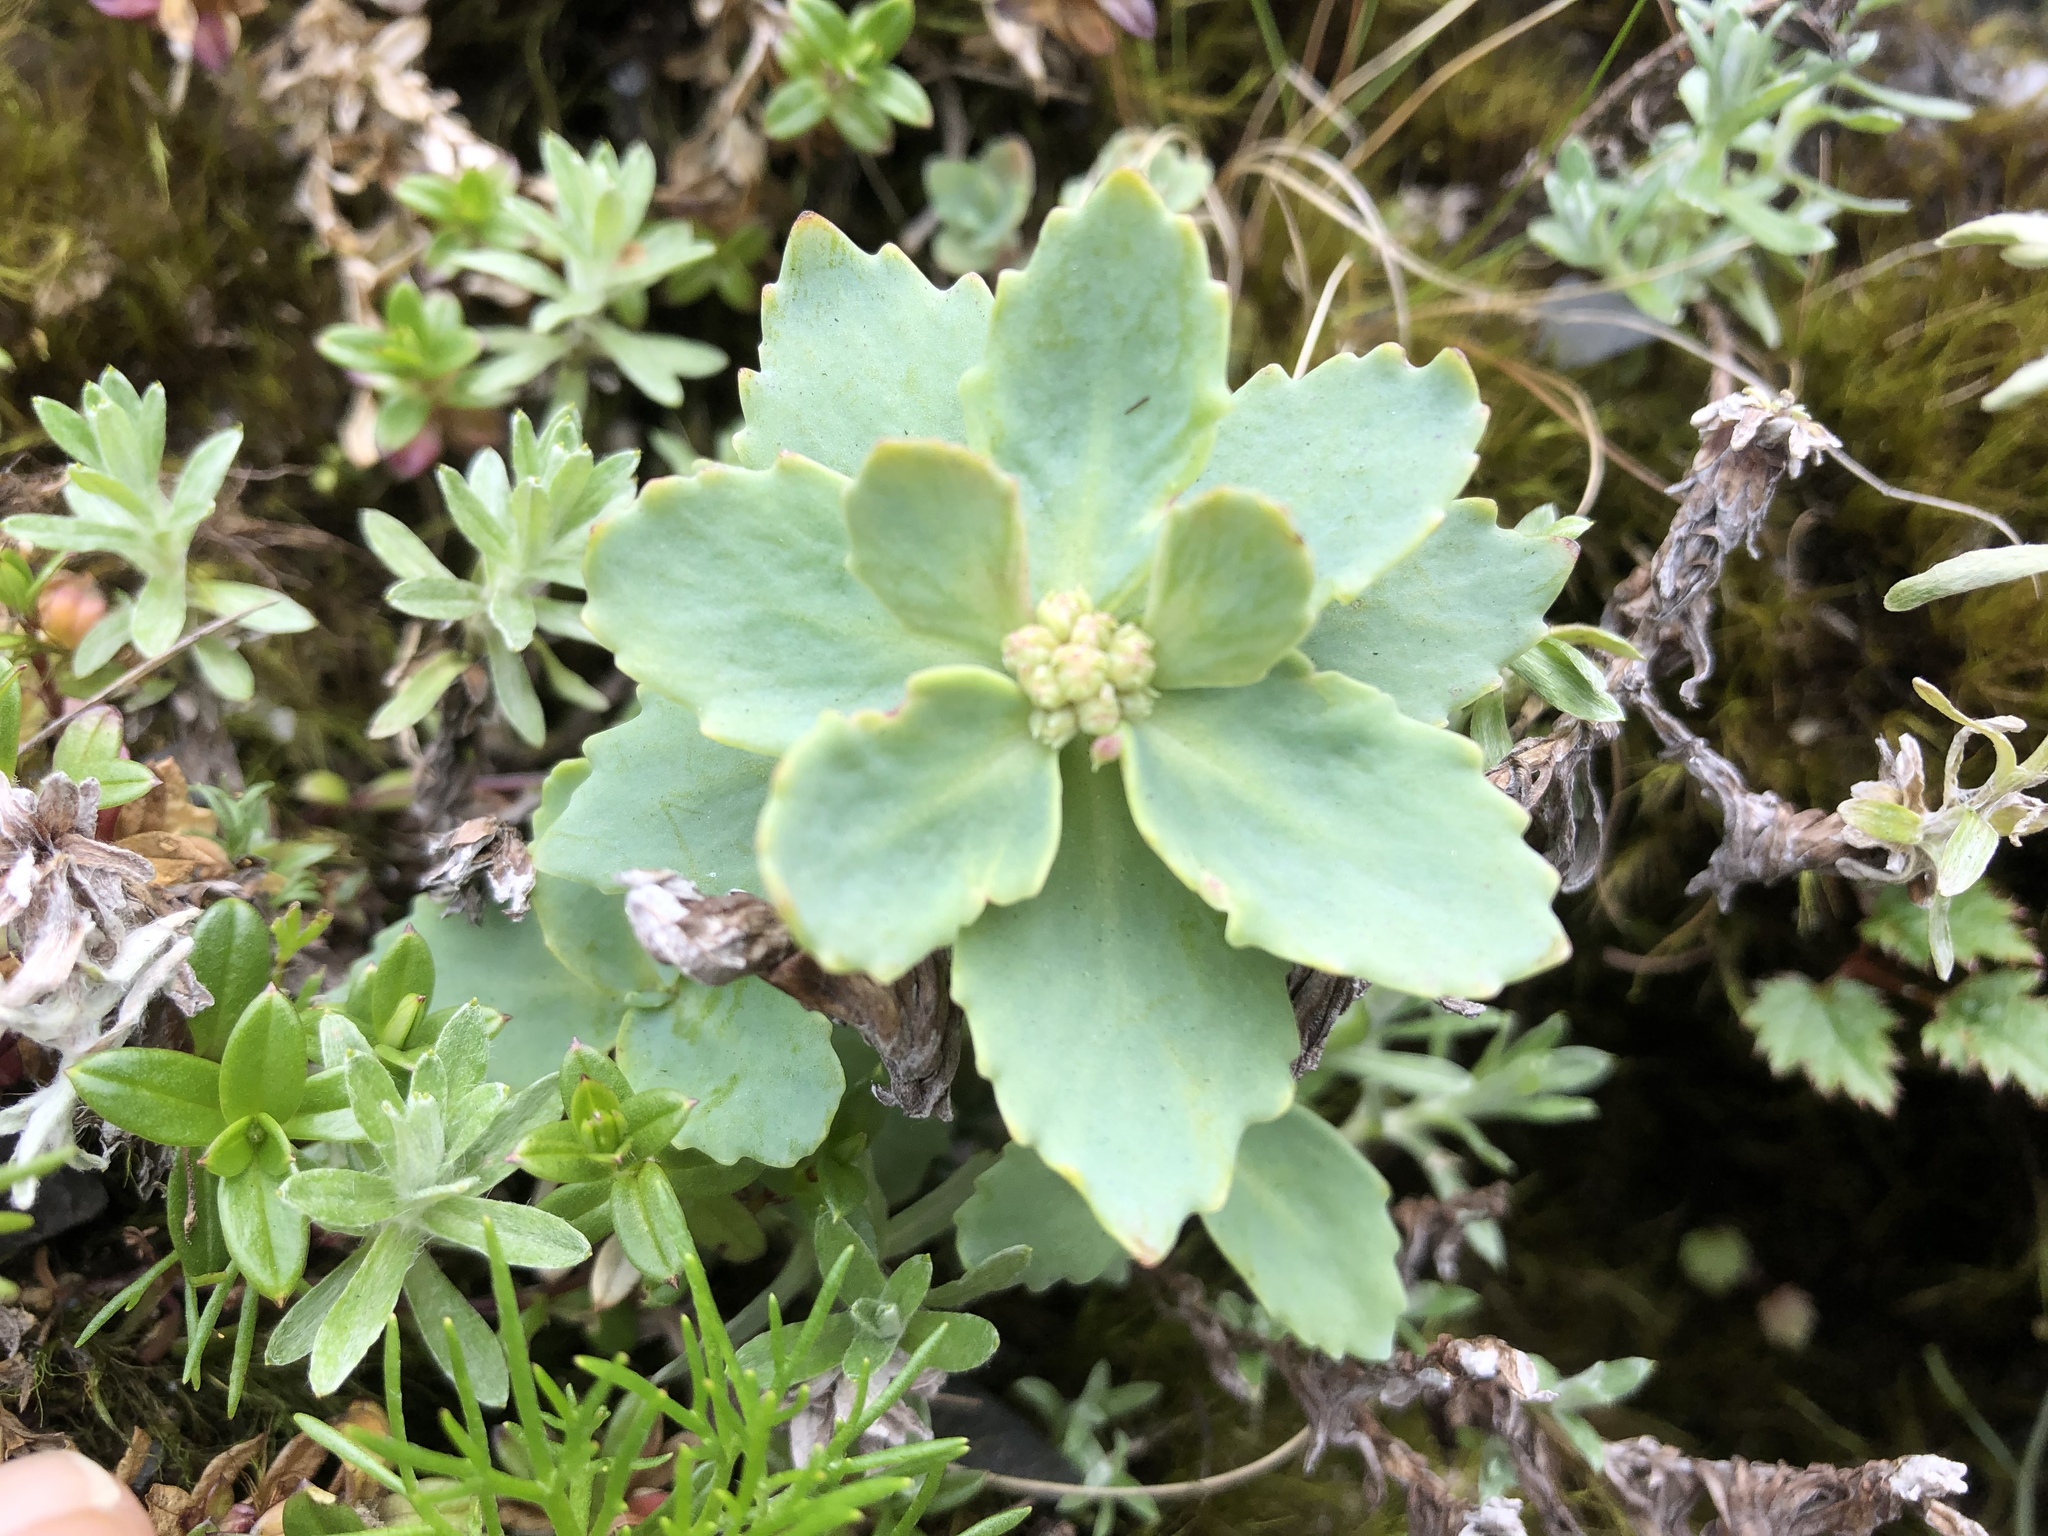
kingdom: Plantae
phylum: Tracheophyta
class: Magnoliopsida
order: Saxifragales
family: Crassulaceae
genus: Phedimus
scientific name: Phedimus subcapitatus
